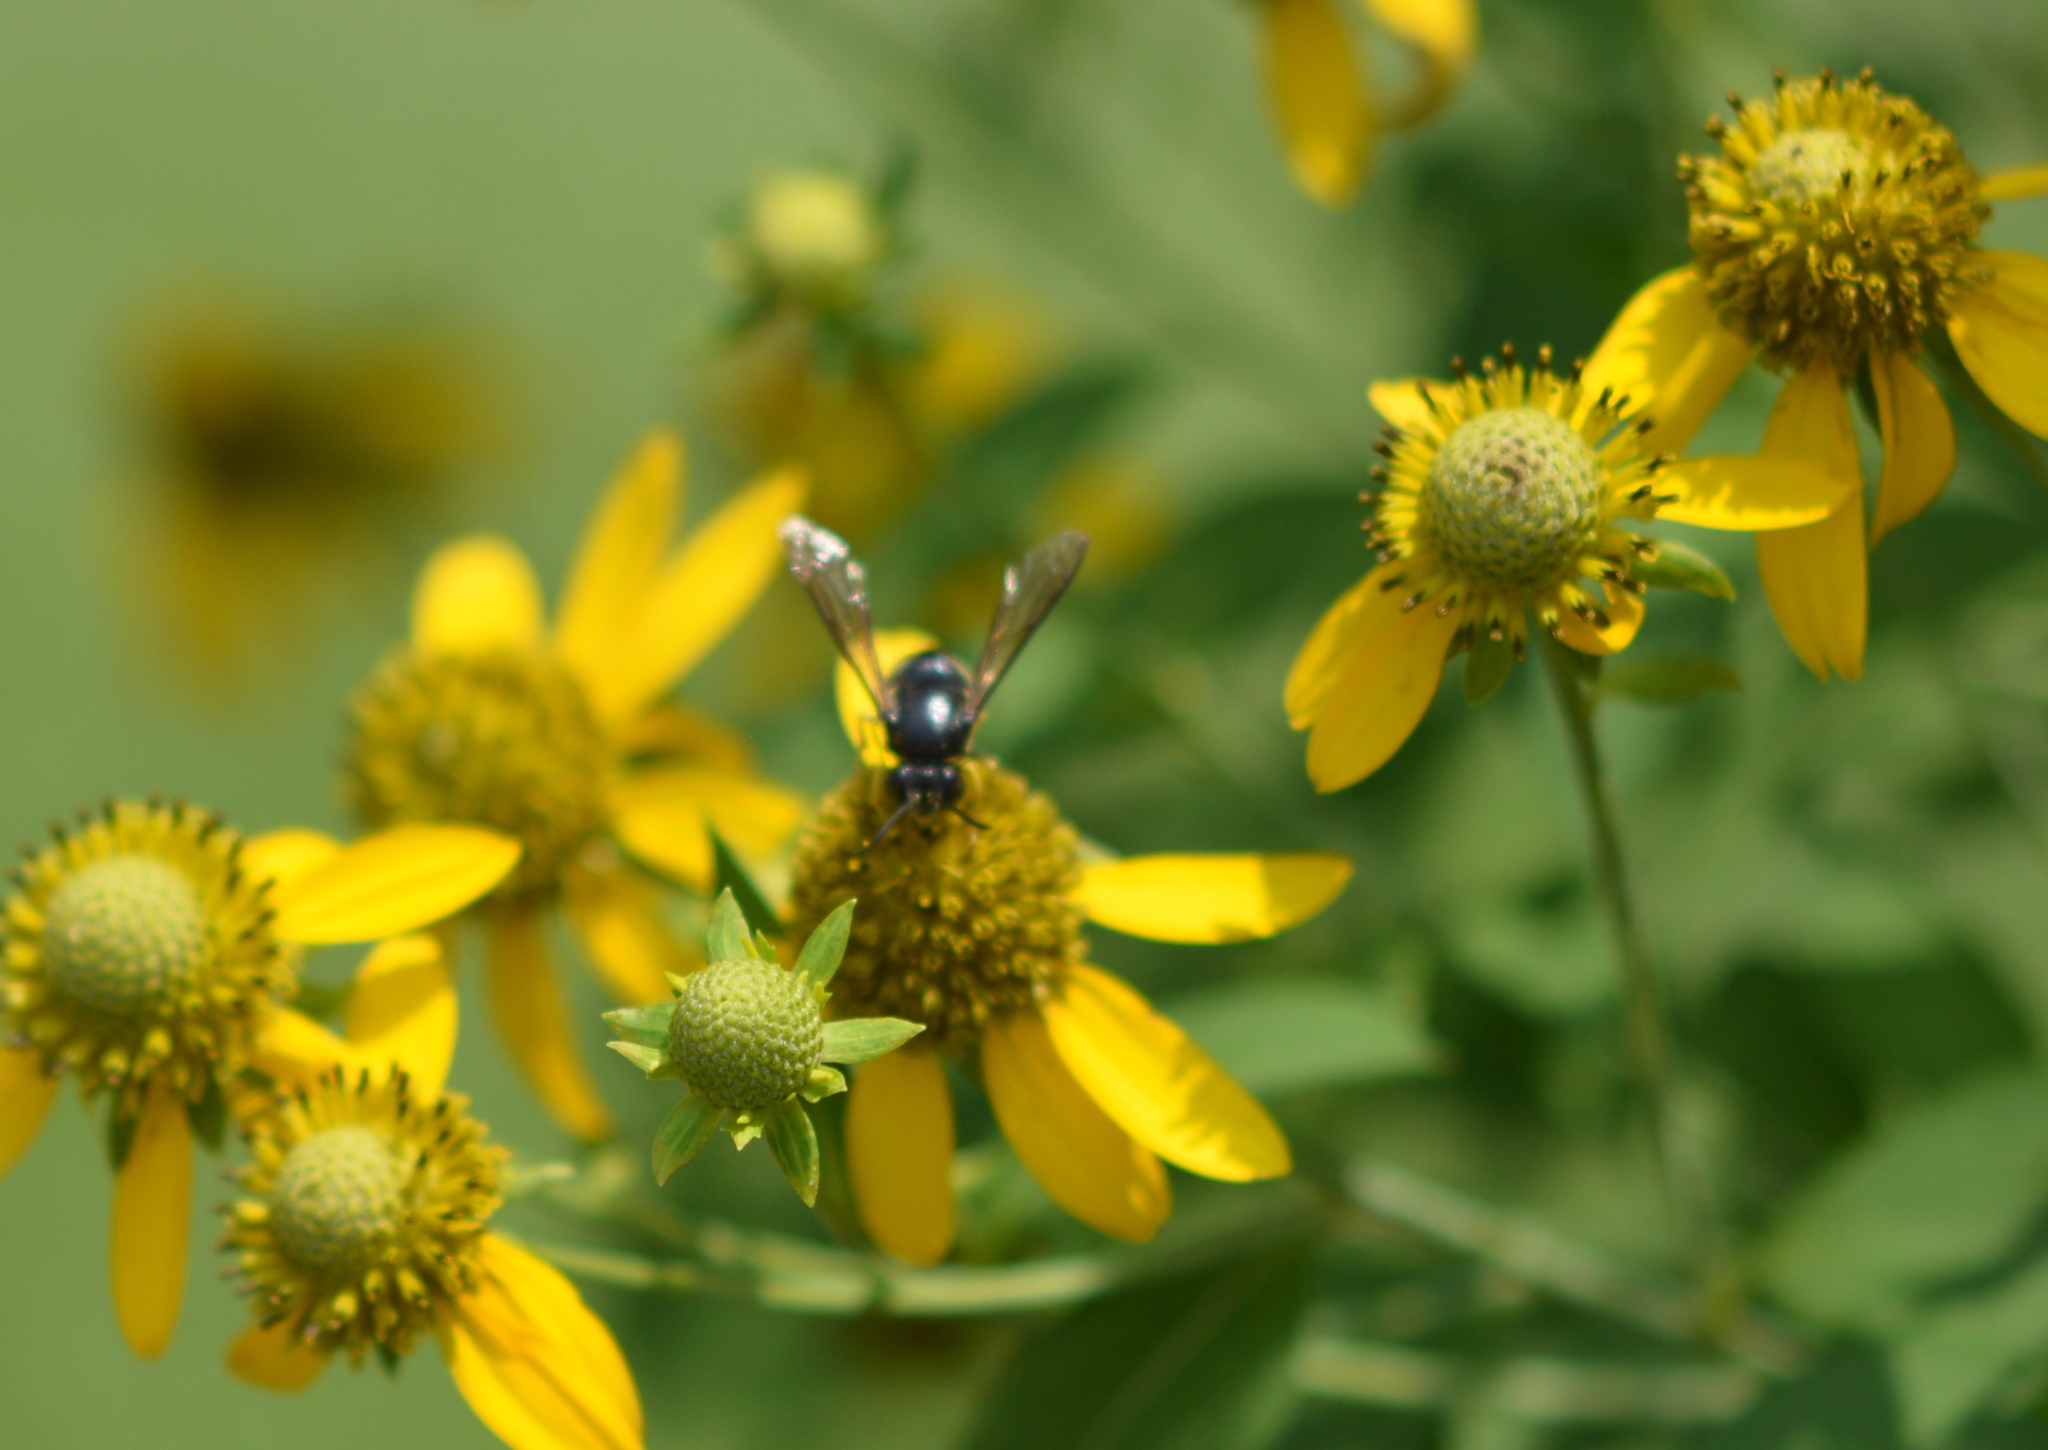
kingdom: Animalia
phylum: Arthropoda
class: Insecta
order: Hymenoptera
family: Crabronidae
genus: Bicyrtes
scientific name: Bicyrtes quadrifasciatus
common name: Four-banded stink bug hunter wasp
